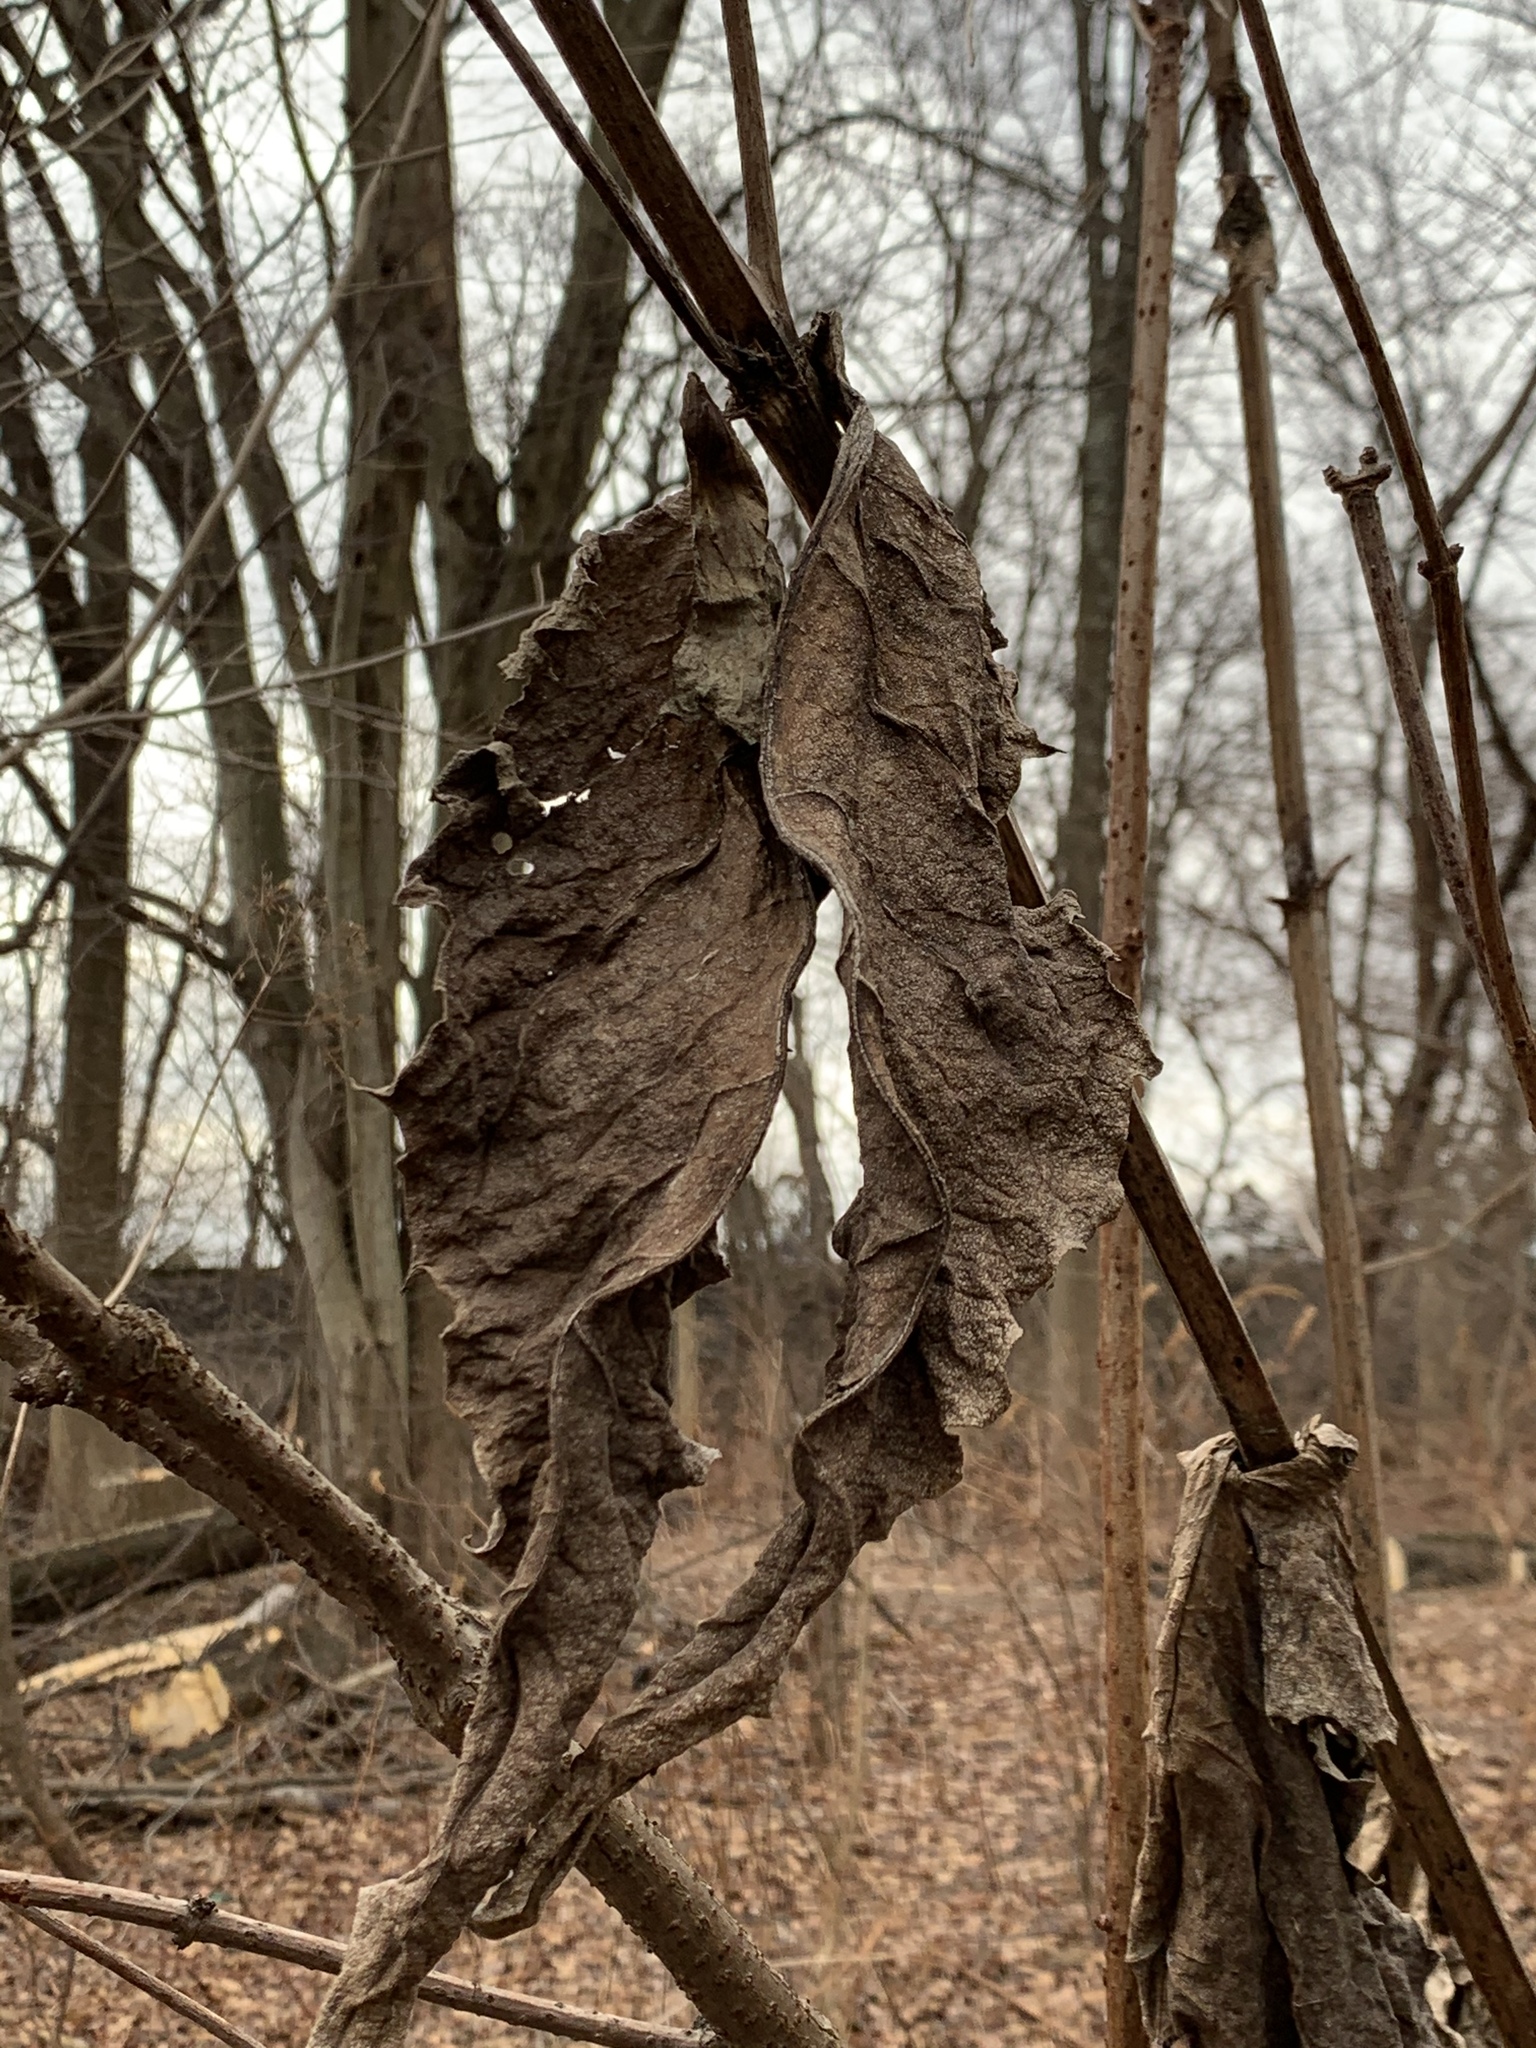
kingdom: Plantae
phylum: Tracheophyta
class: Magnoliopsida
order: Asterales
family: Asteraceae
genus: Silphium
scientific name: Silphium perfoliatum
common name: Cup-plant
